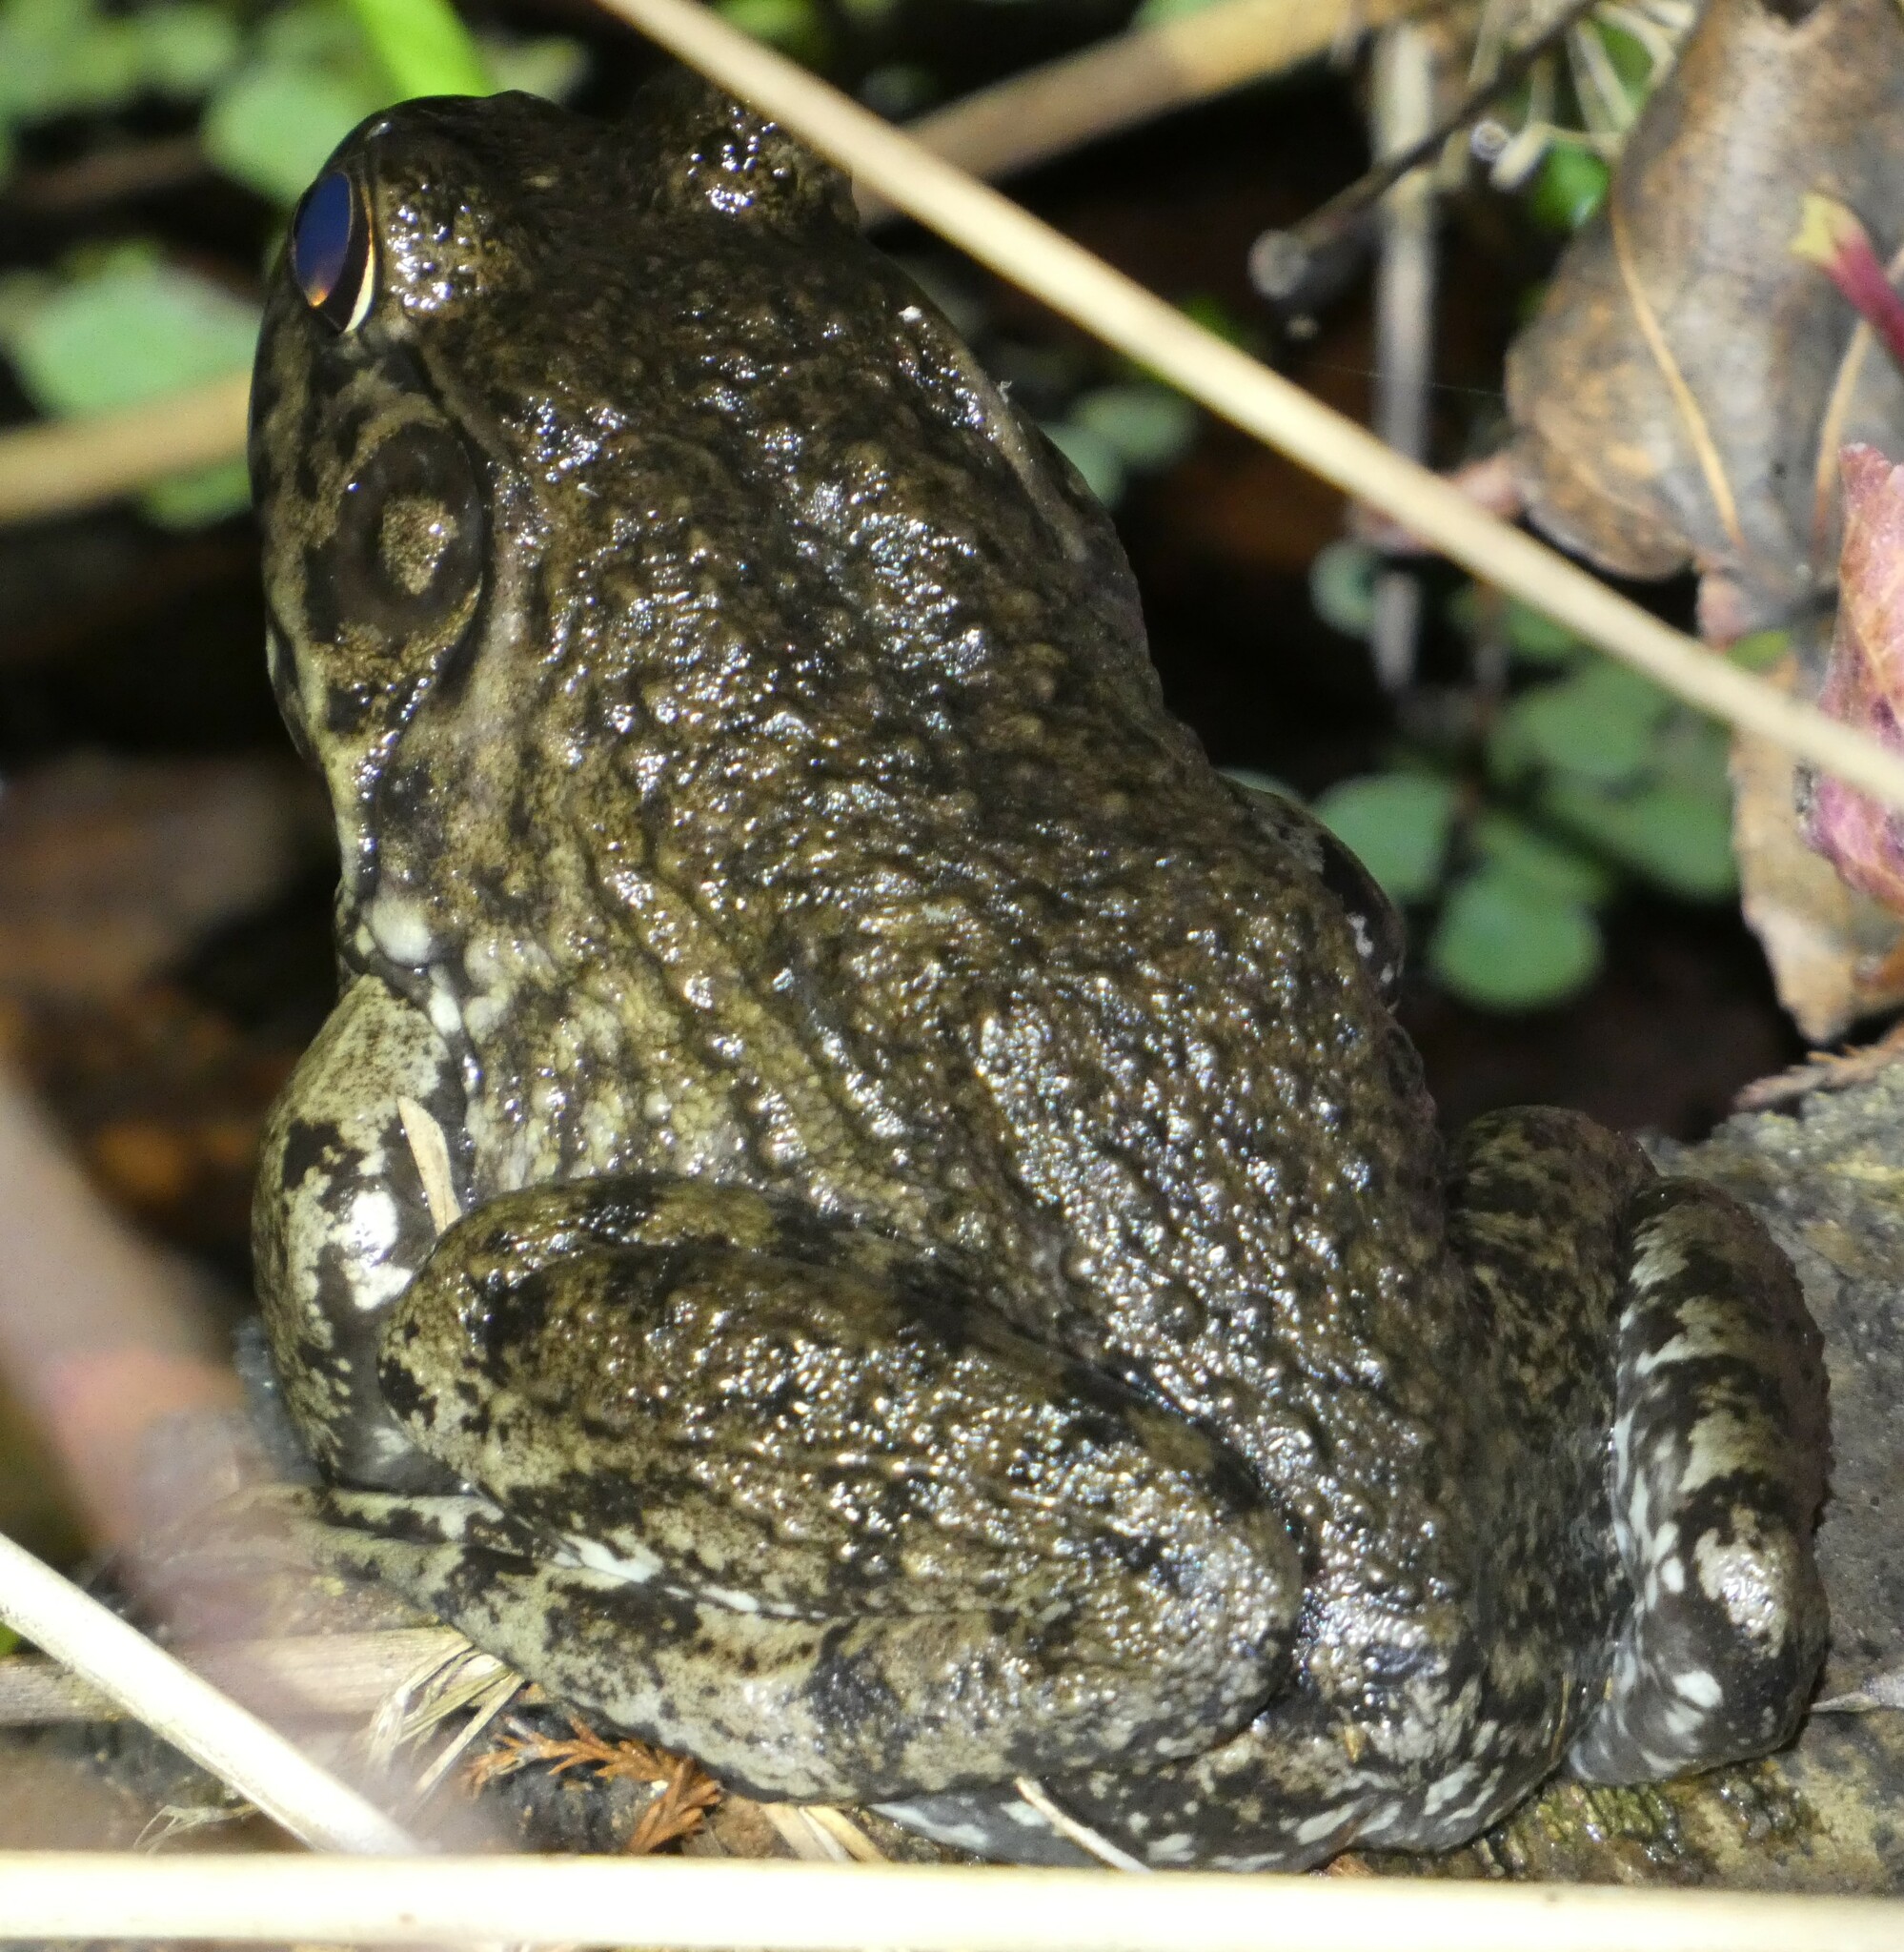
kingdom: Animalia
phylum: Chordata
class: Amphibia
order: Anura
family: Ranidae
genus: Lithobates
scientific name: Lithobates heckscheri
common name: River frog
